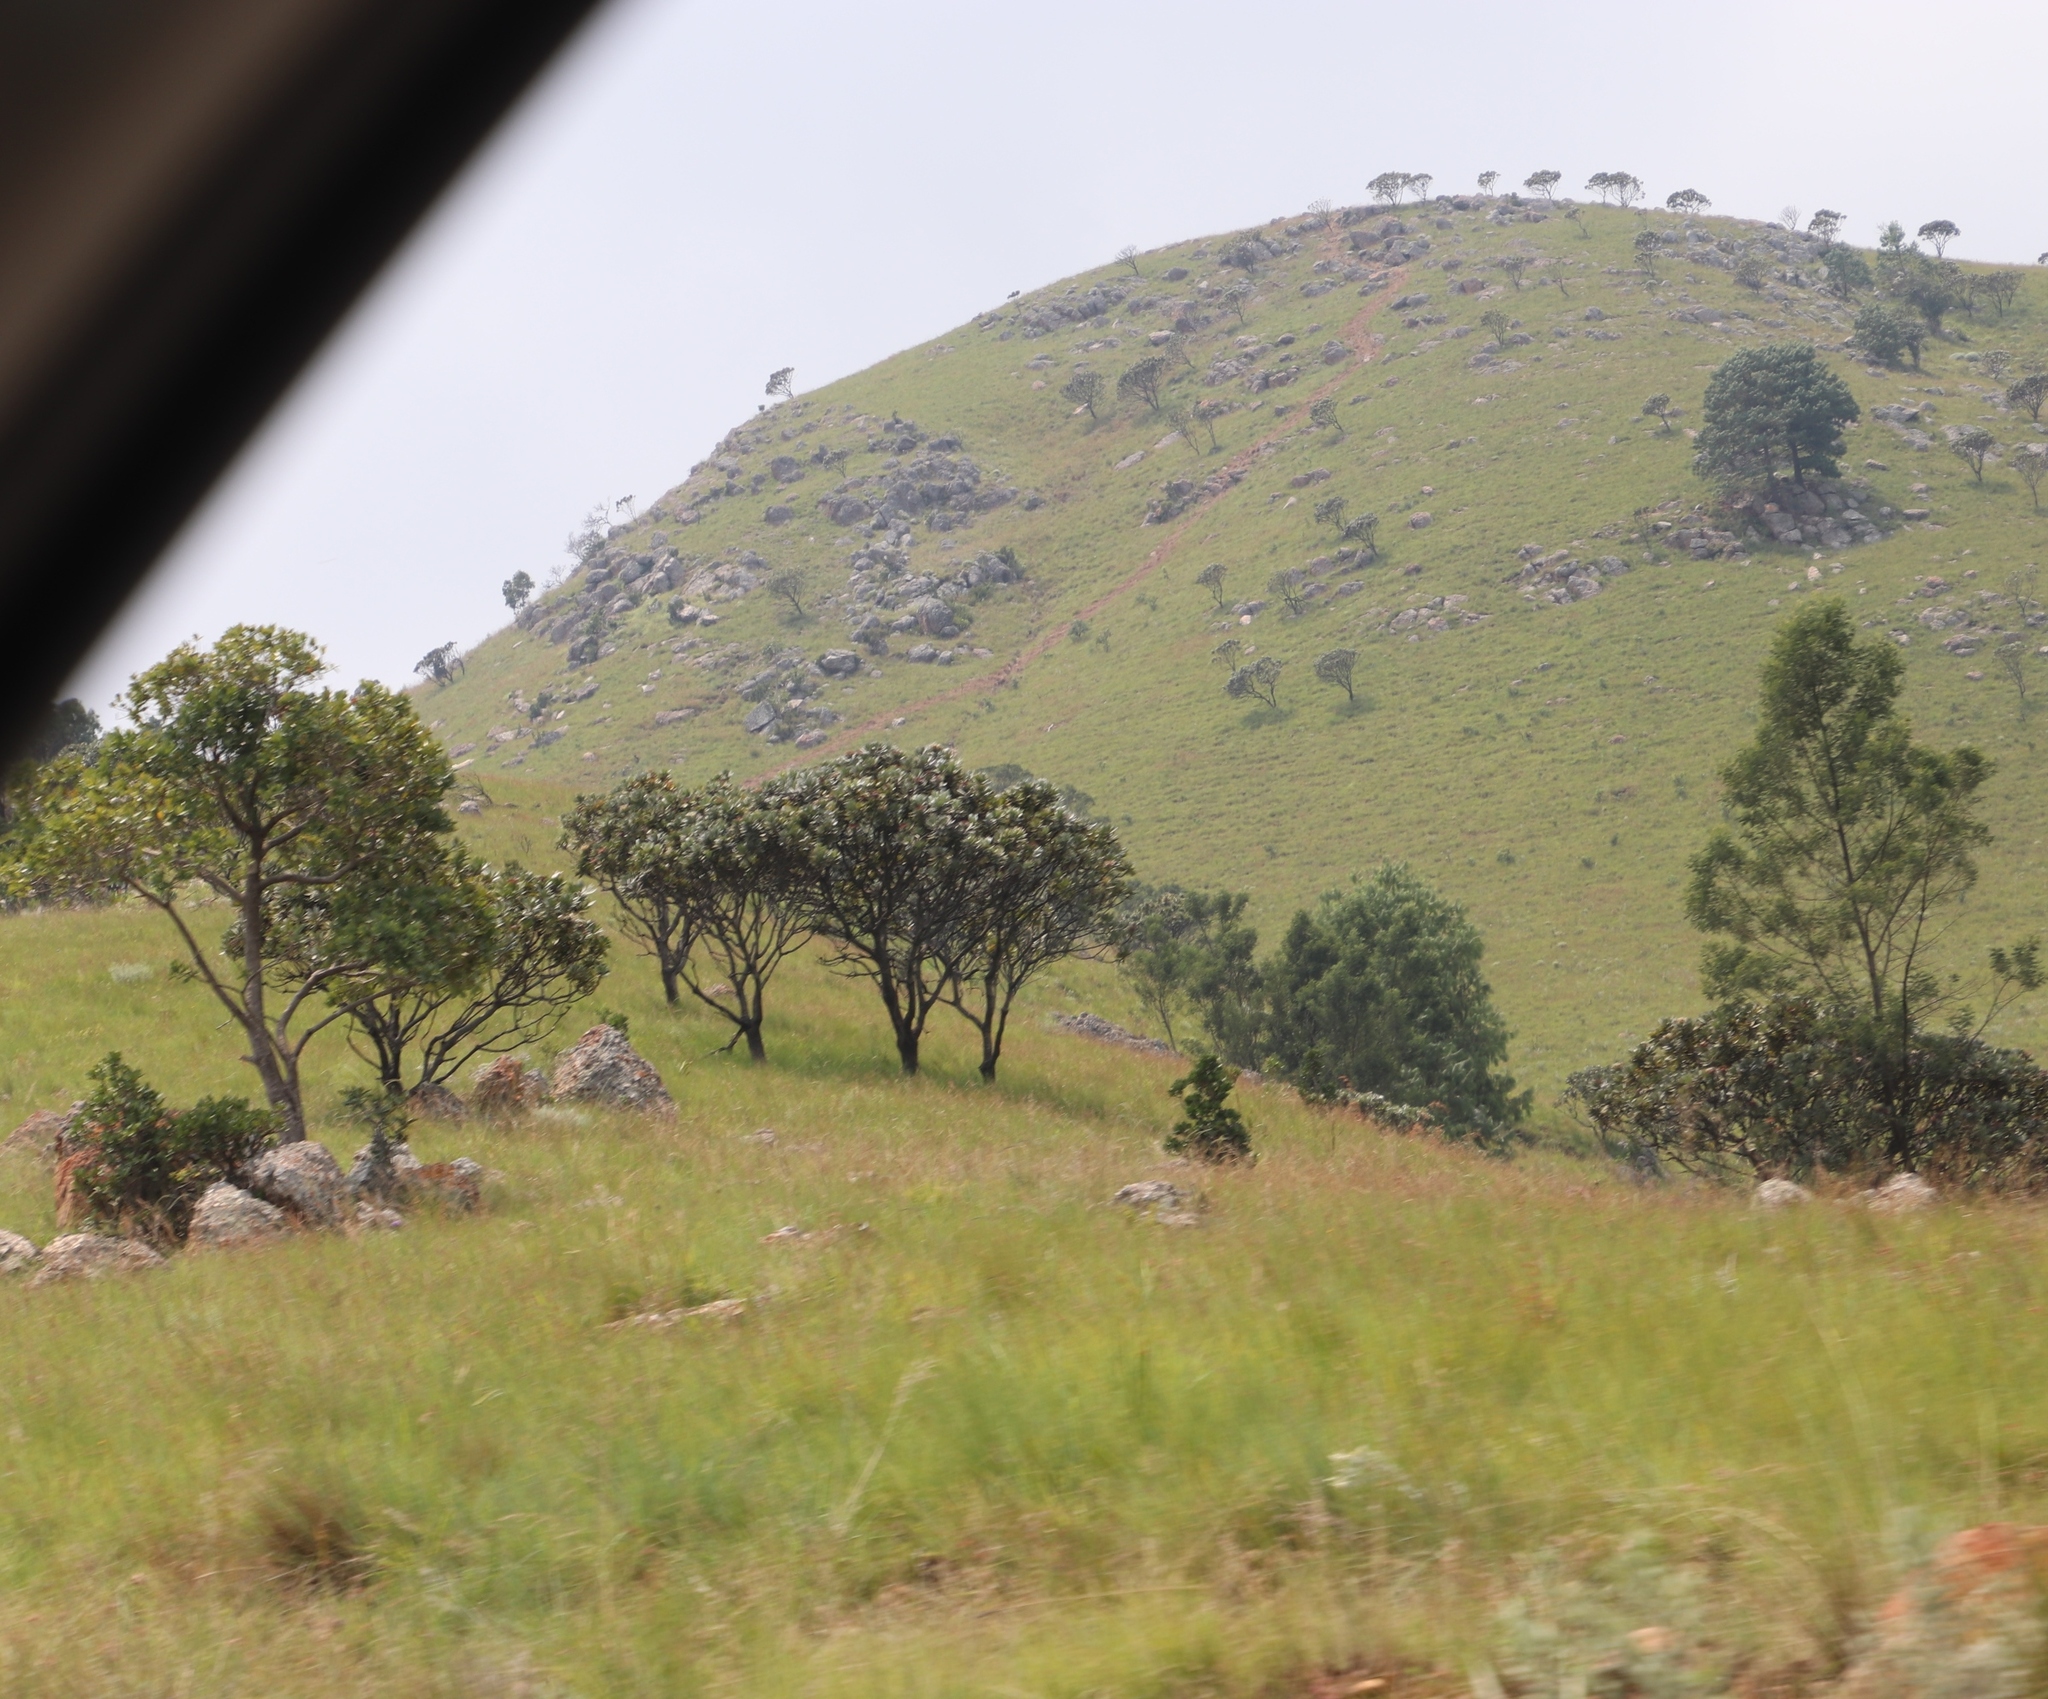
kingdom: Plantae
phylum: Tracheophyta
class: Magnoliopsida
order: Proteales
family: Proteaceae
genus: Protea
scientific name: Protea roupelliae
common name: Silver sugarbush
